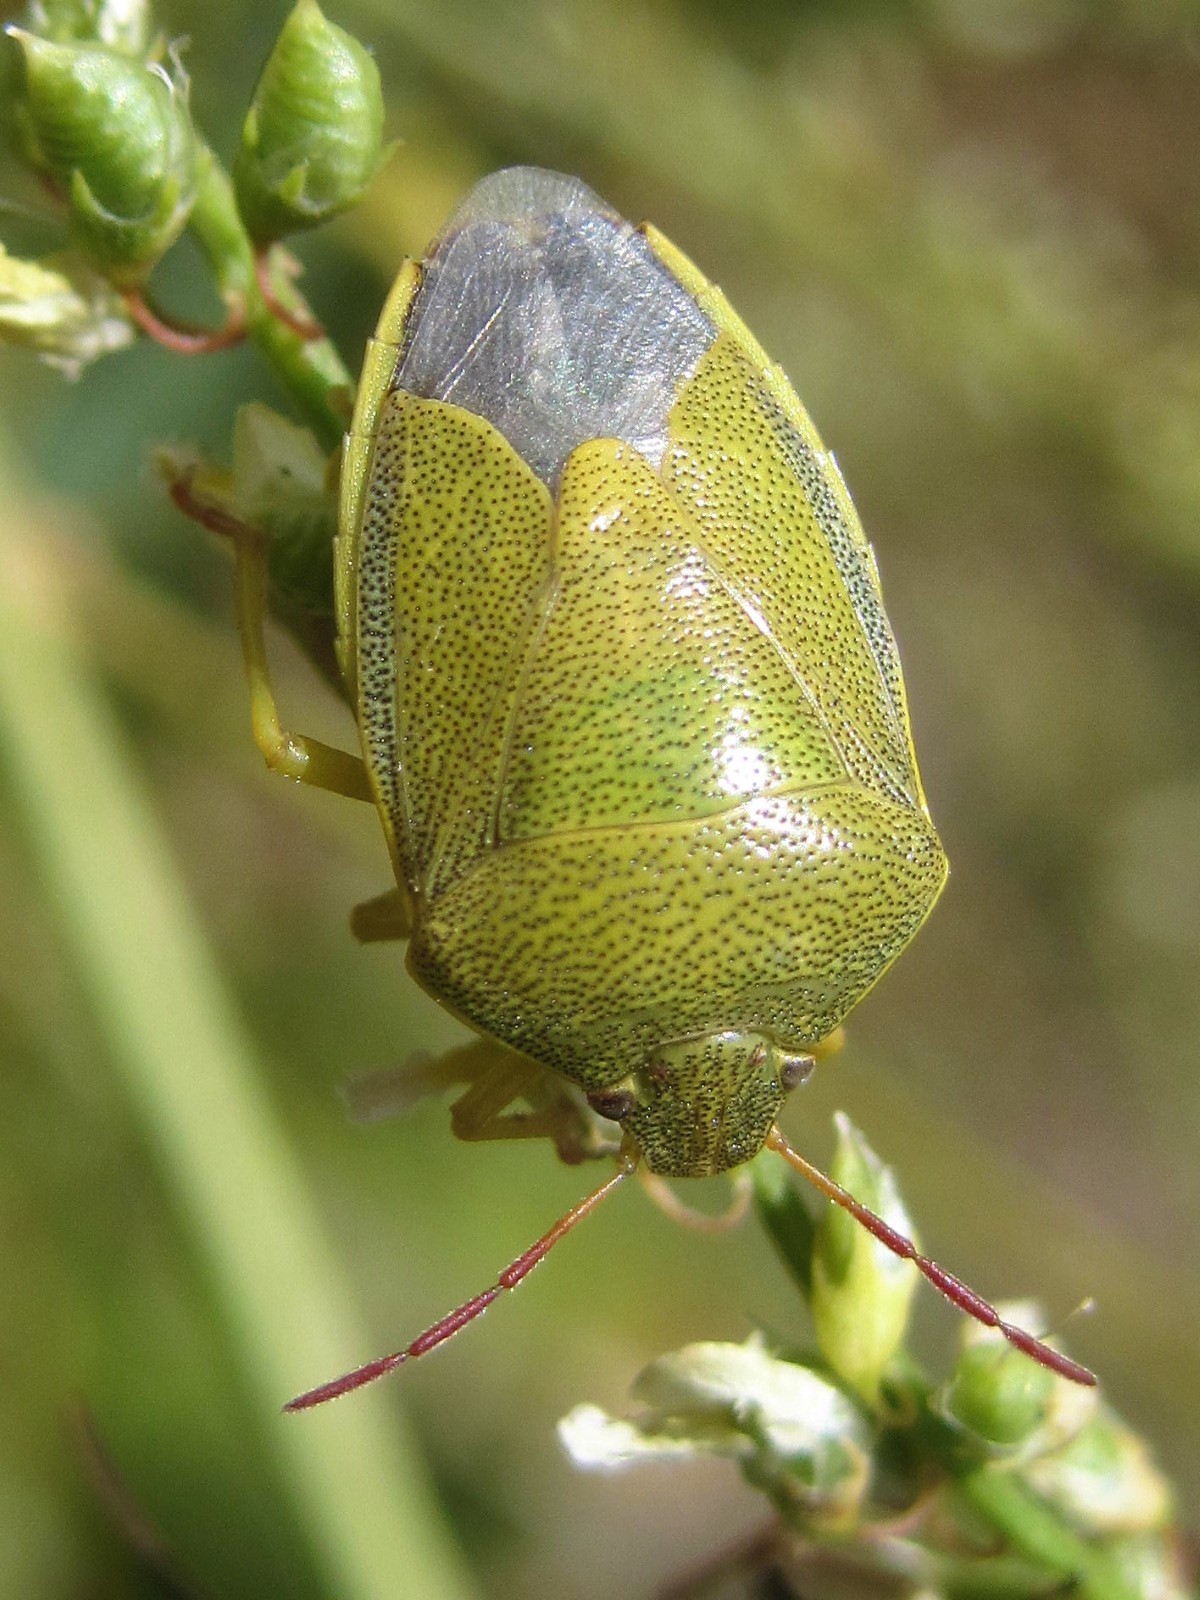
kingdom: Animalia
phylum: Arthropoda
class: Insecta
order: Hemiptera
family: Pentatomidae
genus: Piezodorus
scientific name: Piezodorus lituratus
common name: Stink bug
